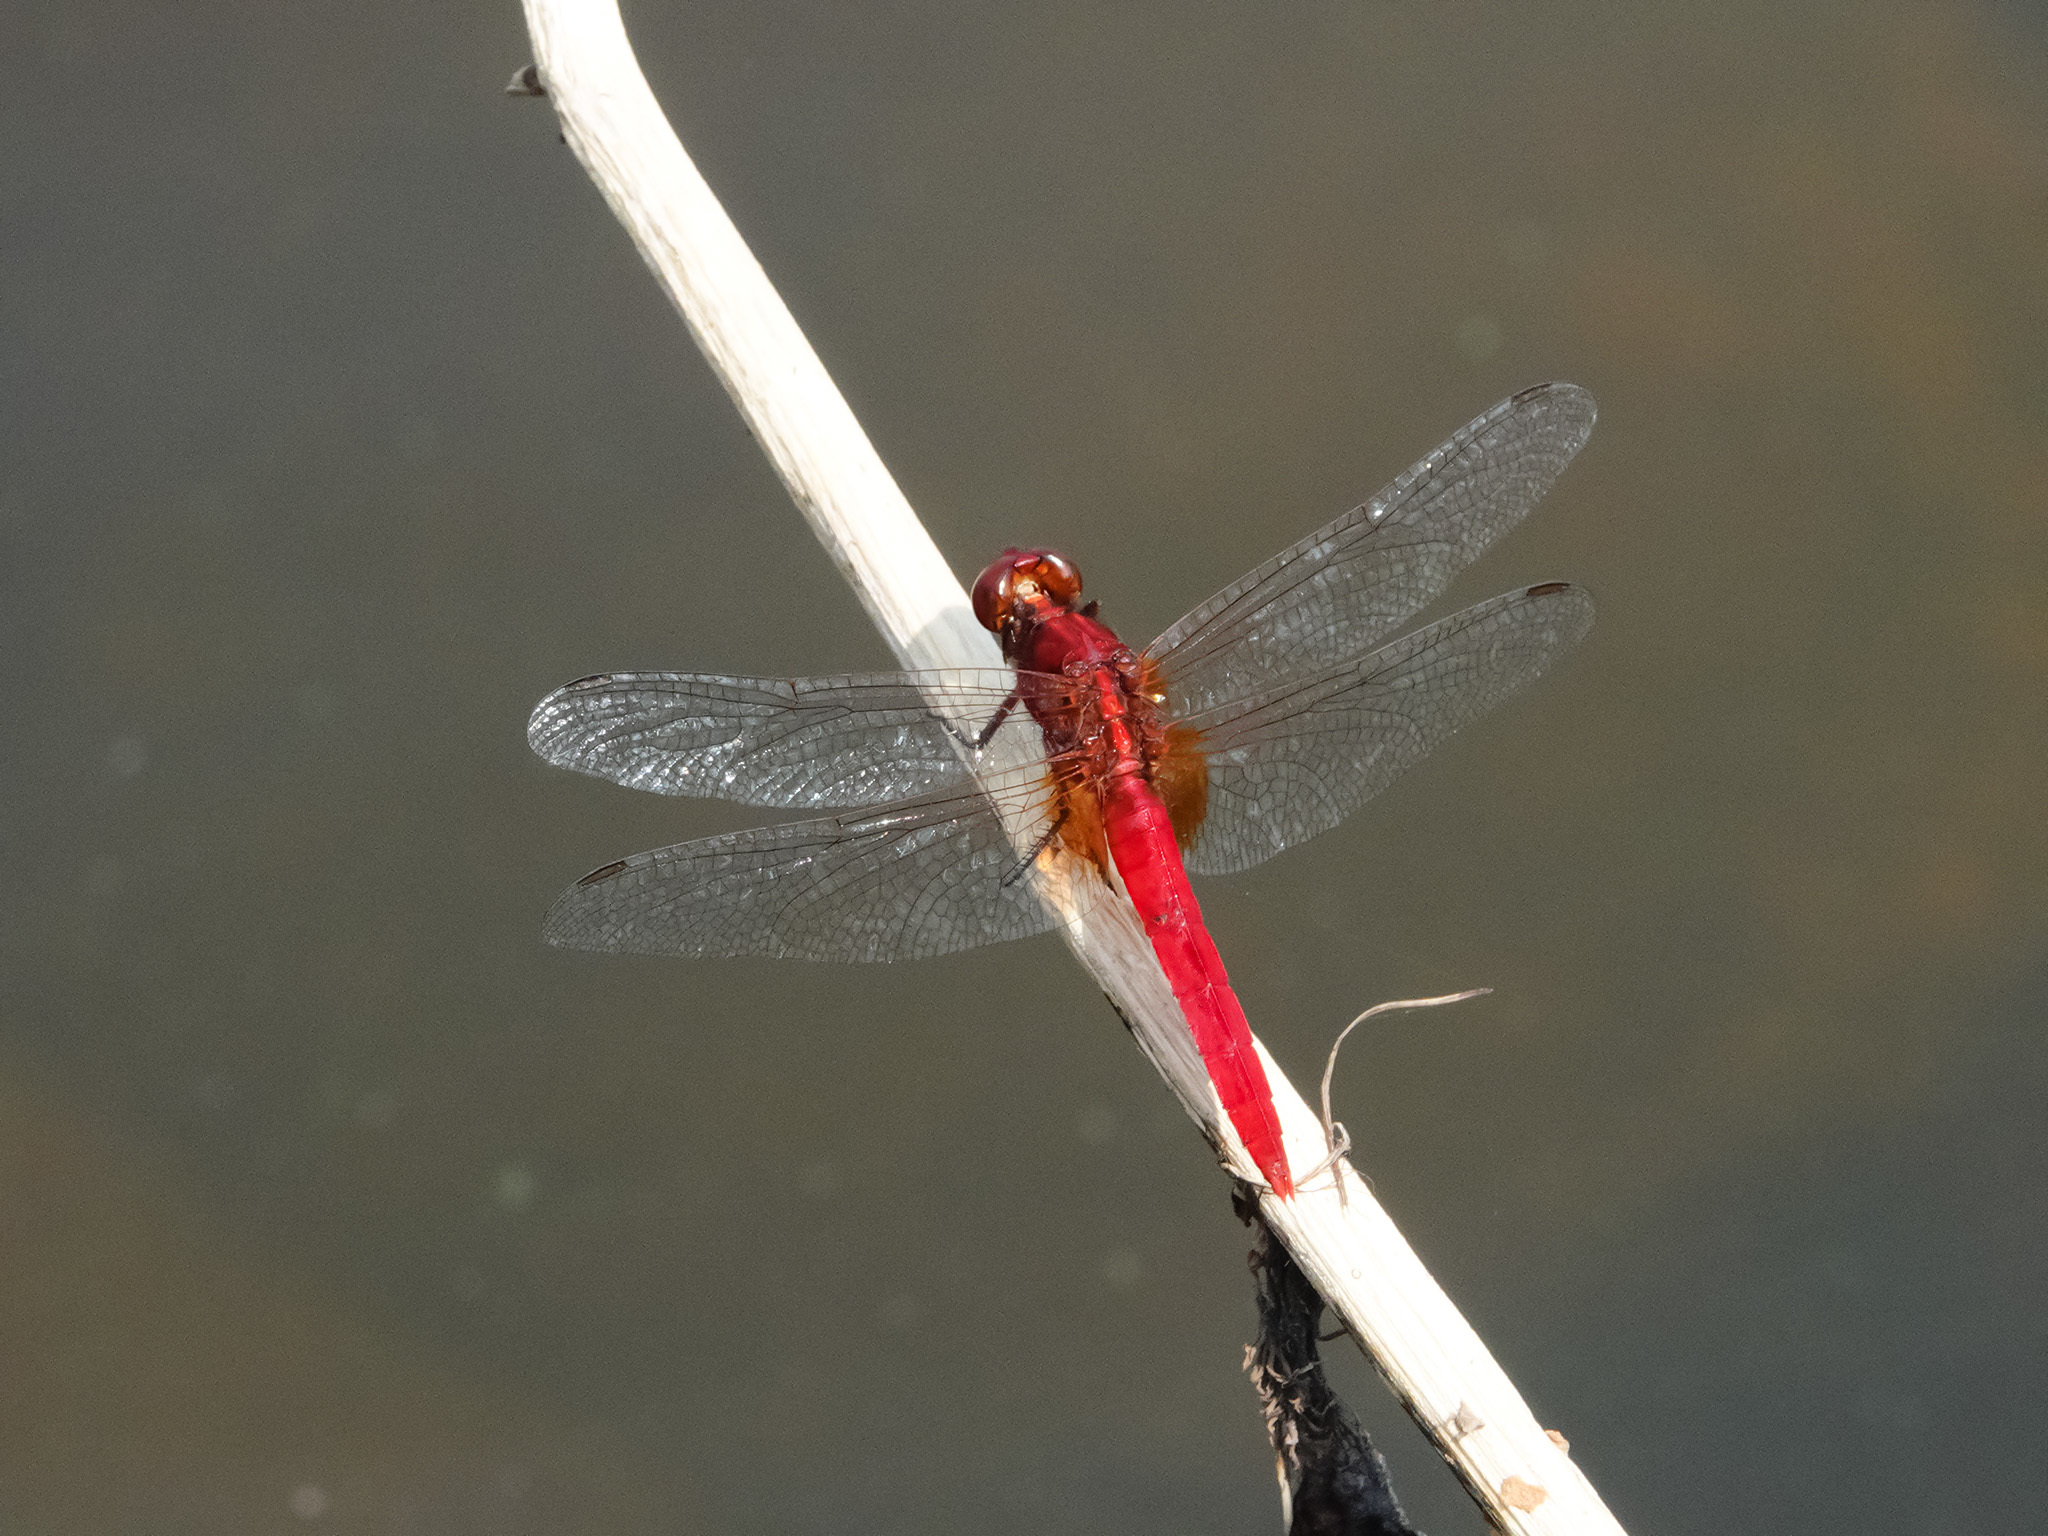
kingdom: Animalia
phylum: Arthropoda
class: Insecta
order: Odonata
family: Libellulidae
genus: Rhodothemis
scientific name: Rhodothemis rufa
